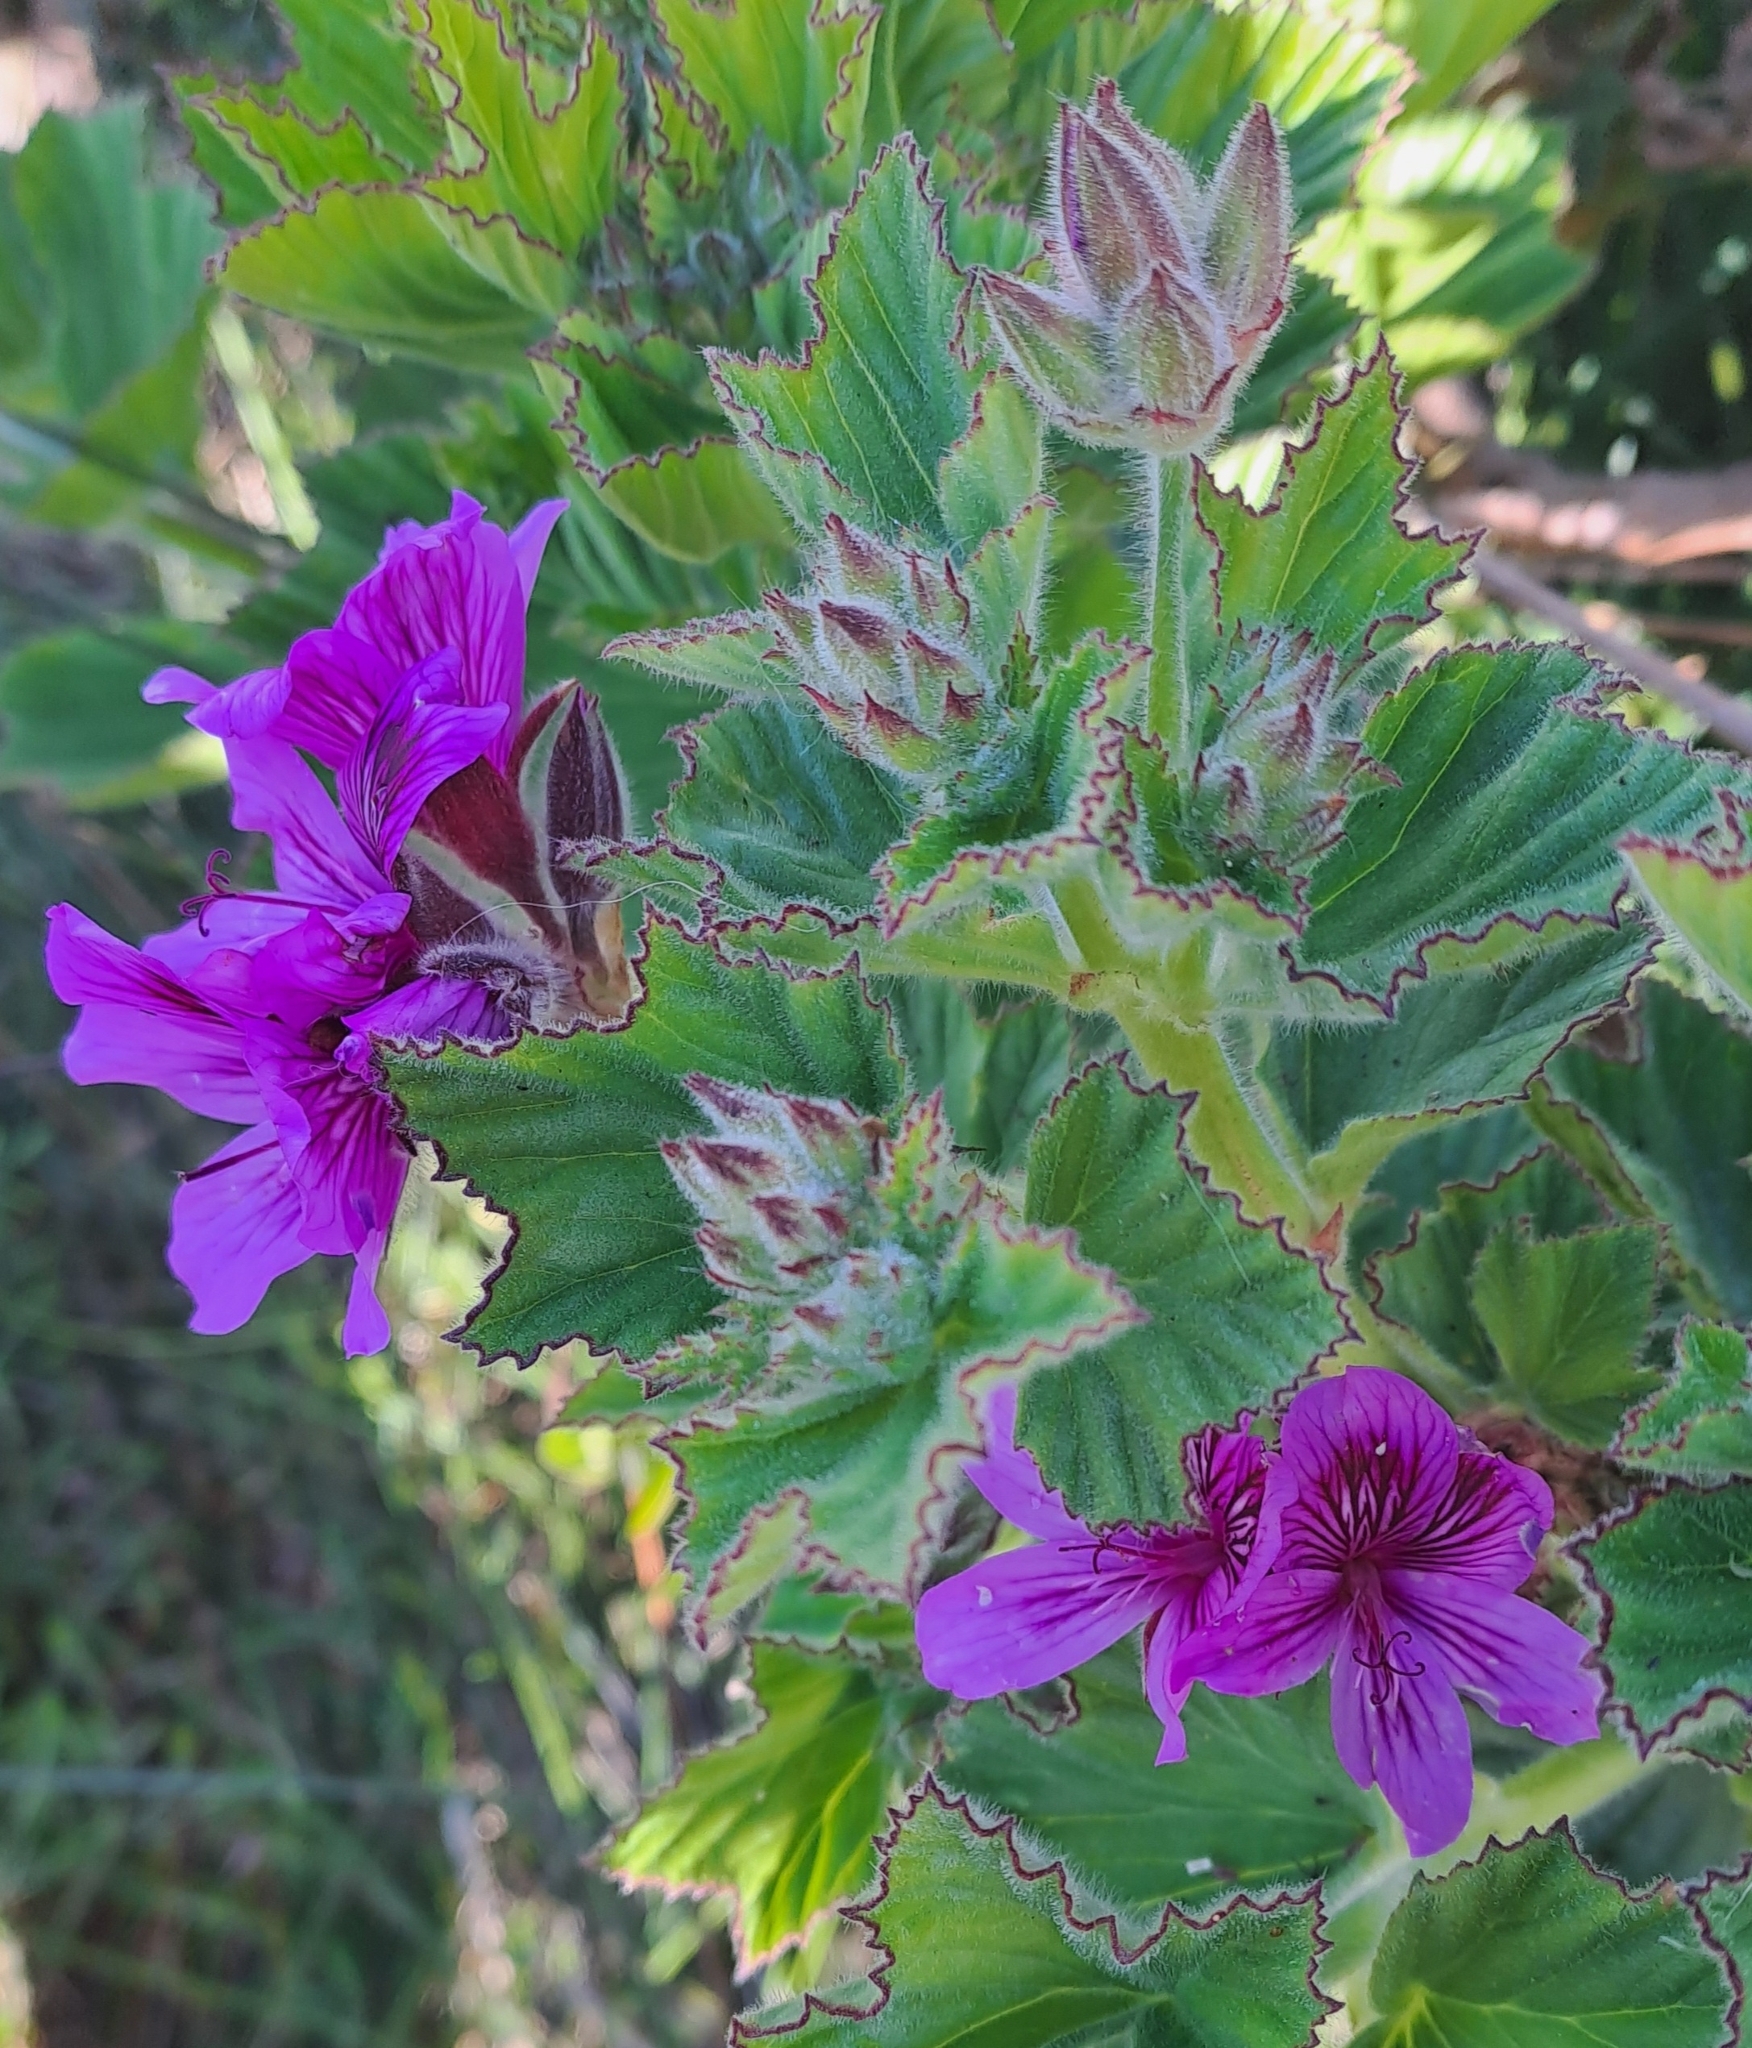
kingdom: Plantae
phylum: Tracheophyta
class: Magnoliopsida
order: Geraniales
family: Geraniaceae
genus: Pelargonium
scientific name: Pelargonium cucullatum
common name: Tree pelargonium
